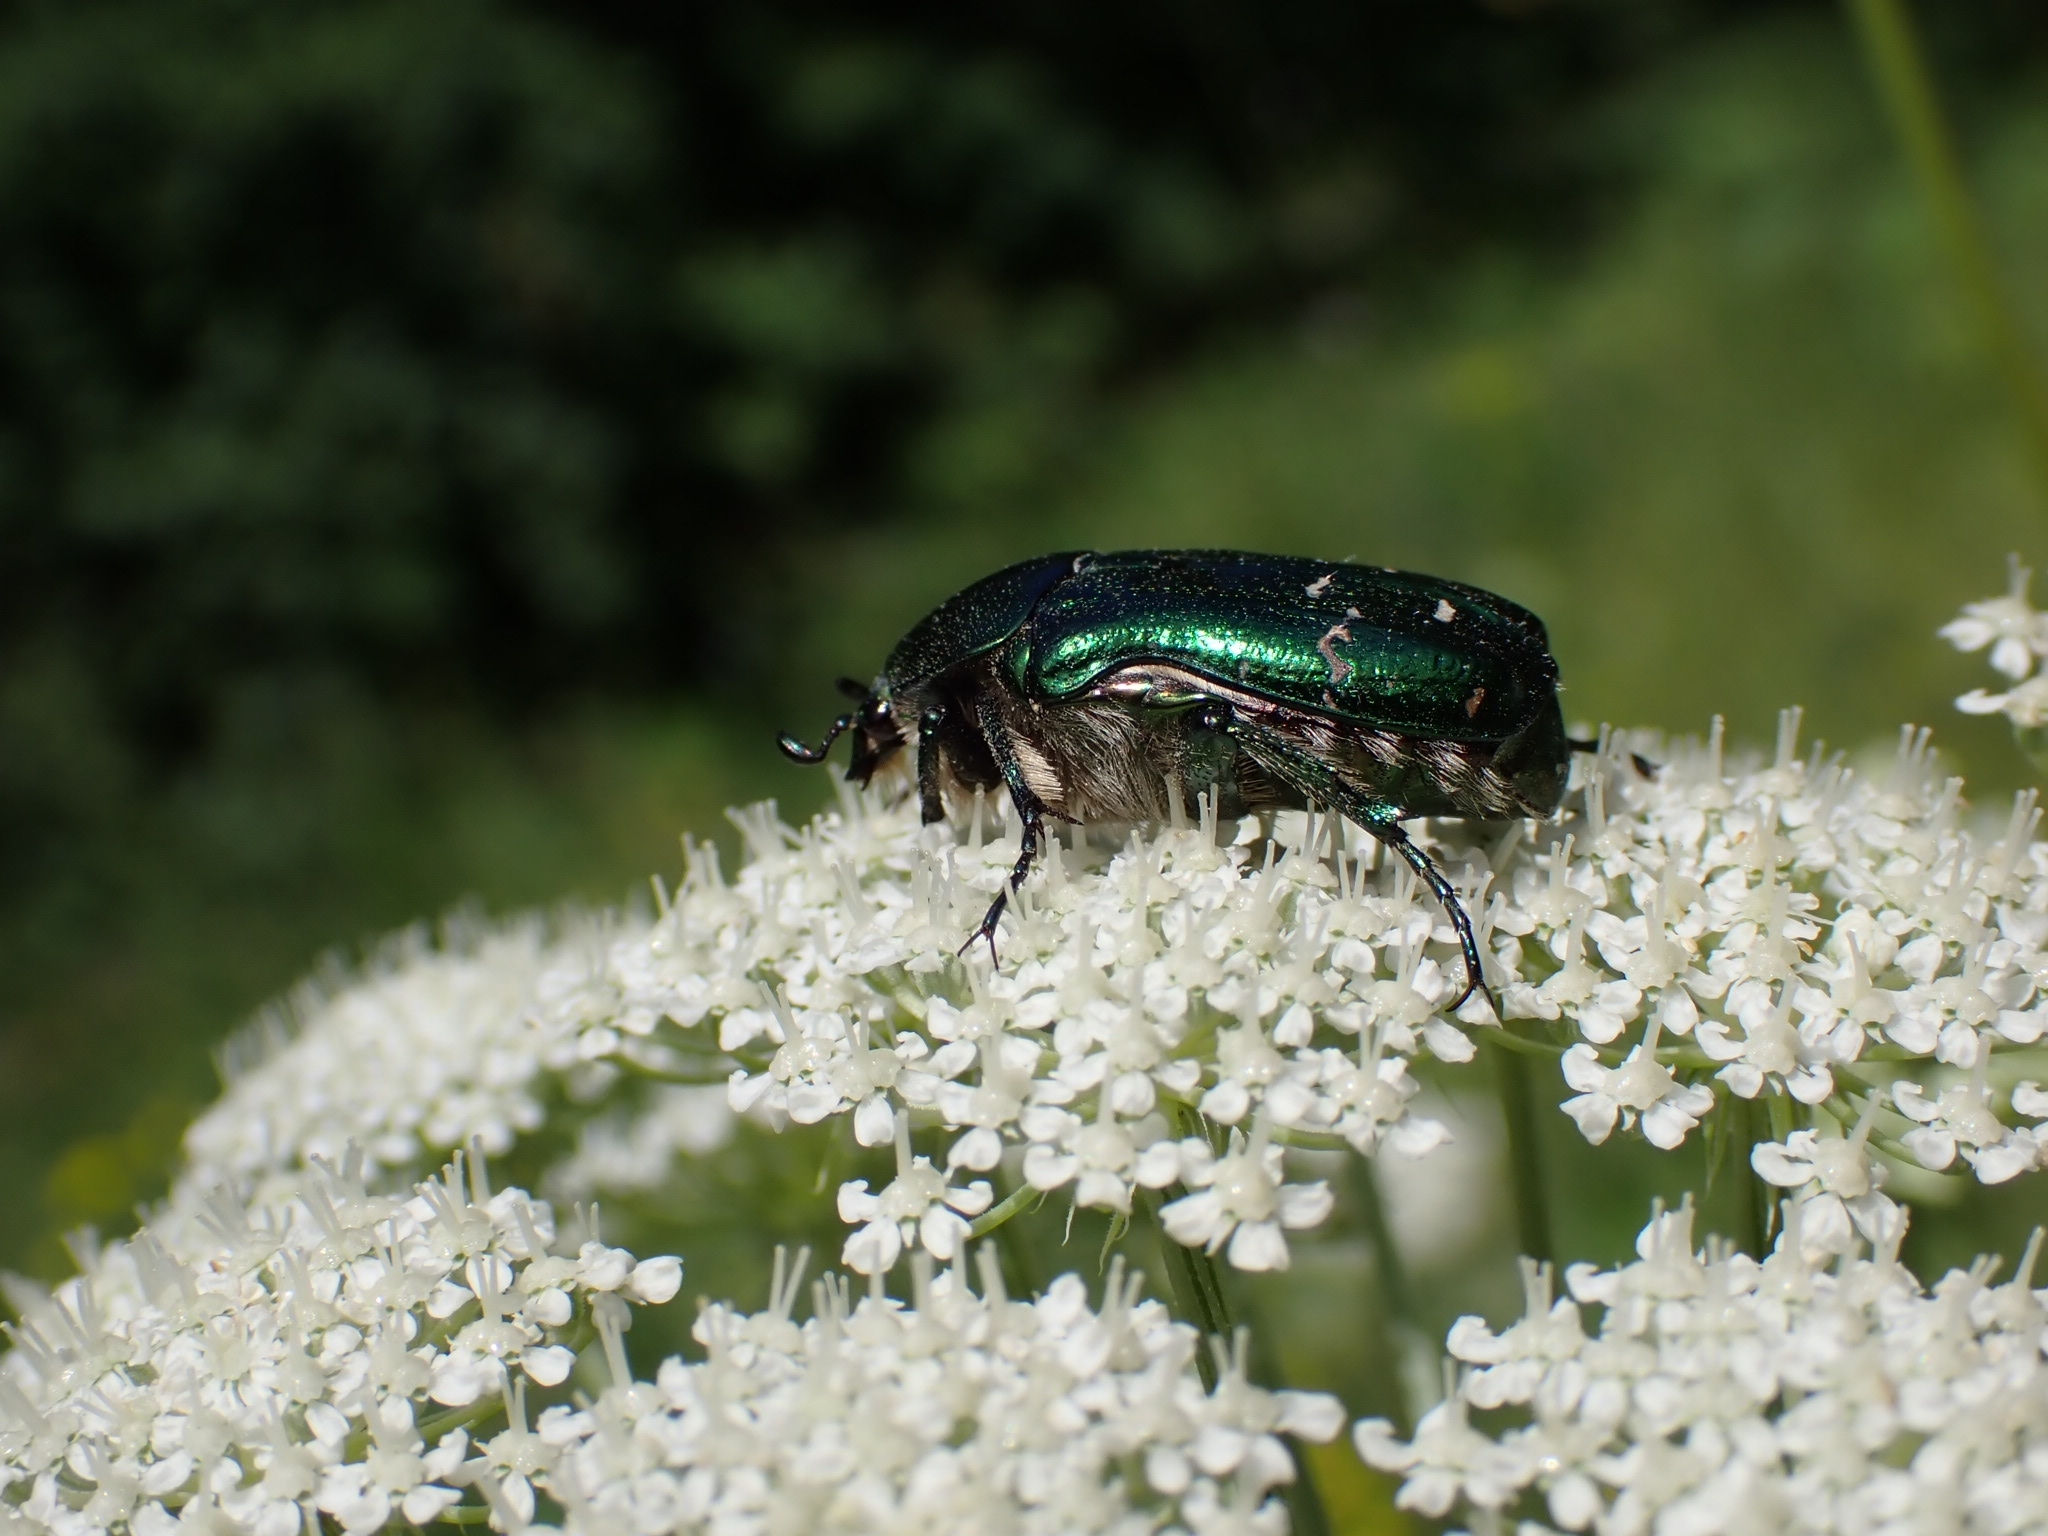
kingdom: Animalia
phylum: Arthropoda
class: Insecta
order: Coleoptera
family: Scarabaeidae
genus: Cetonia
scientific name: Cetonia aurata
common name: Rose chafer
